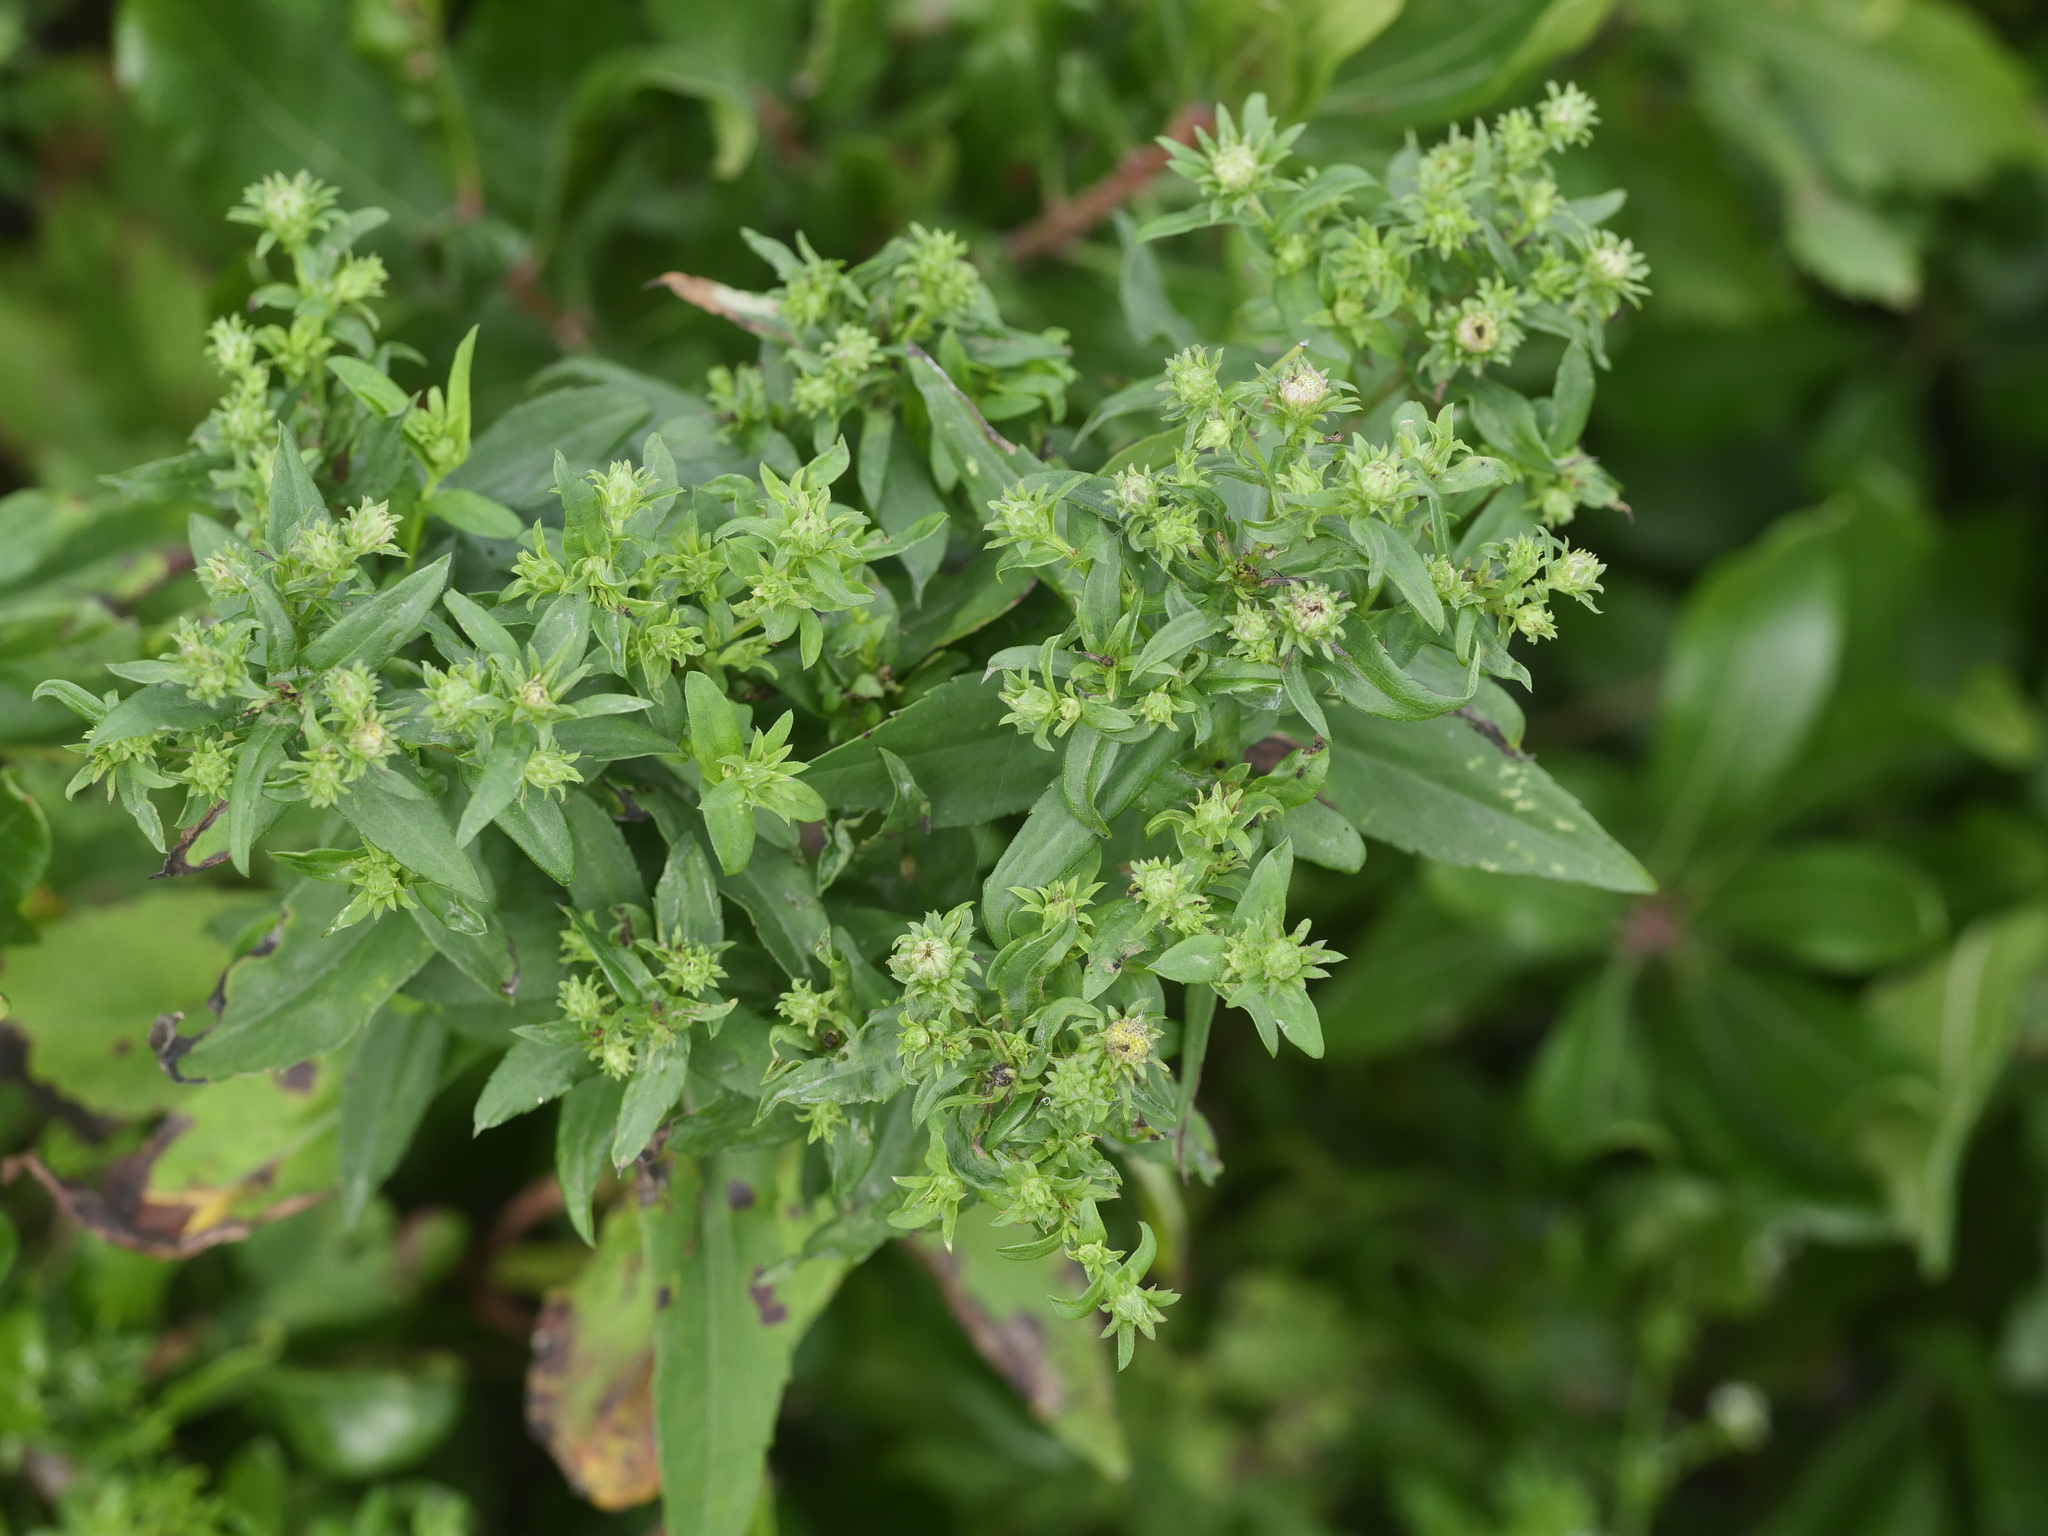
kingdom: Plantae
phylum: Tracheophyta
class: Magnoliopsida
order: Asterales
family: Asteraceae
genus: Symphyotrichum
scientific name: Symphyotrichum novi-belgii
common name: Michaelmas daisy
